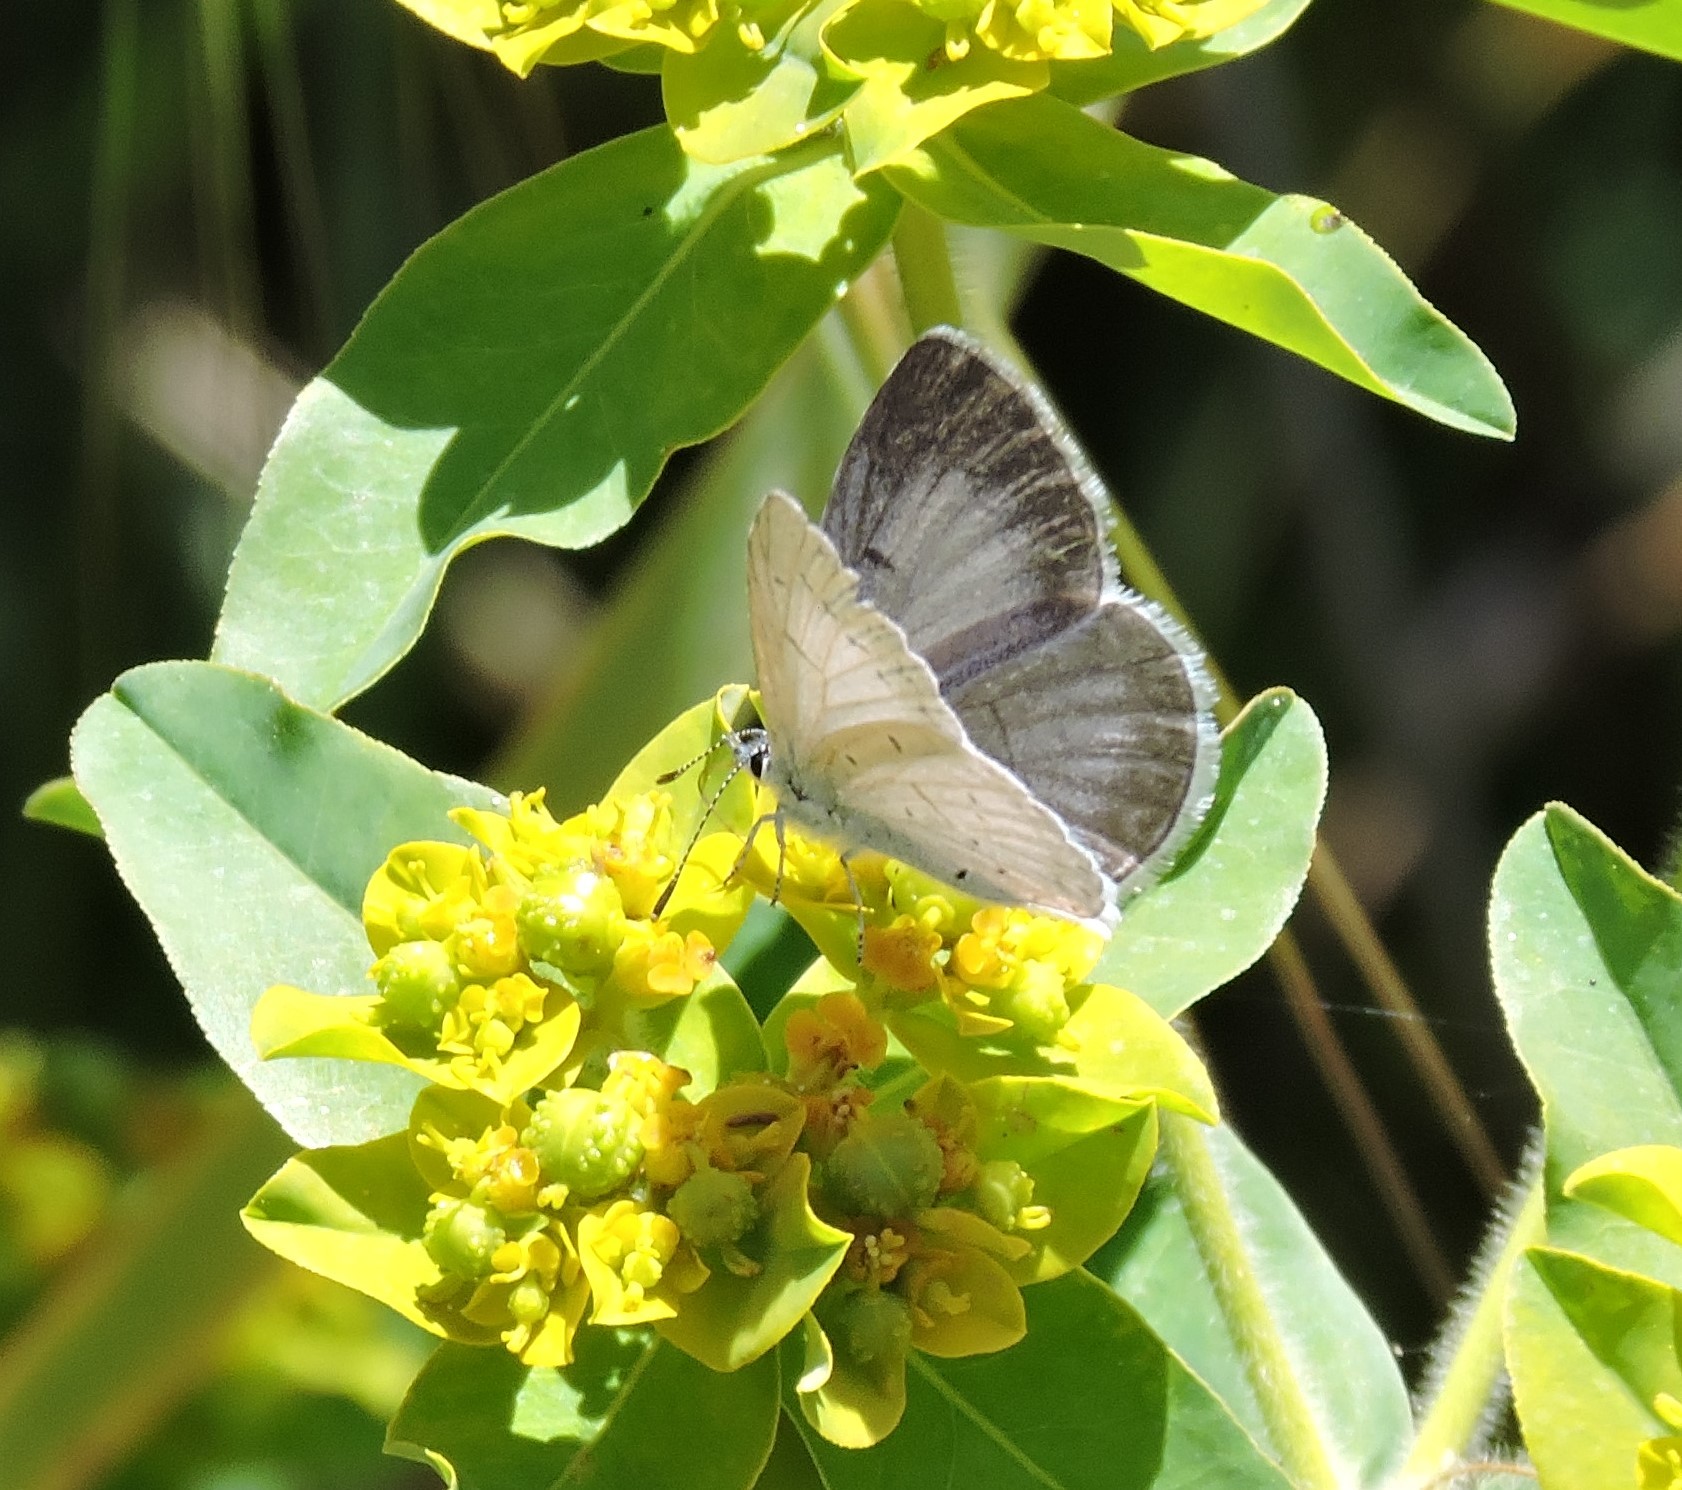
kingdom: Animalia
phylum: Arthropoda
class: Insecta
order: Lepidoptera
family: Lycaenidae
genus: Celastrina
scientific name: Celastrina ladon
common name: Spring azure
